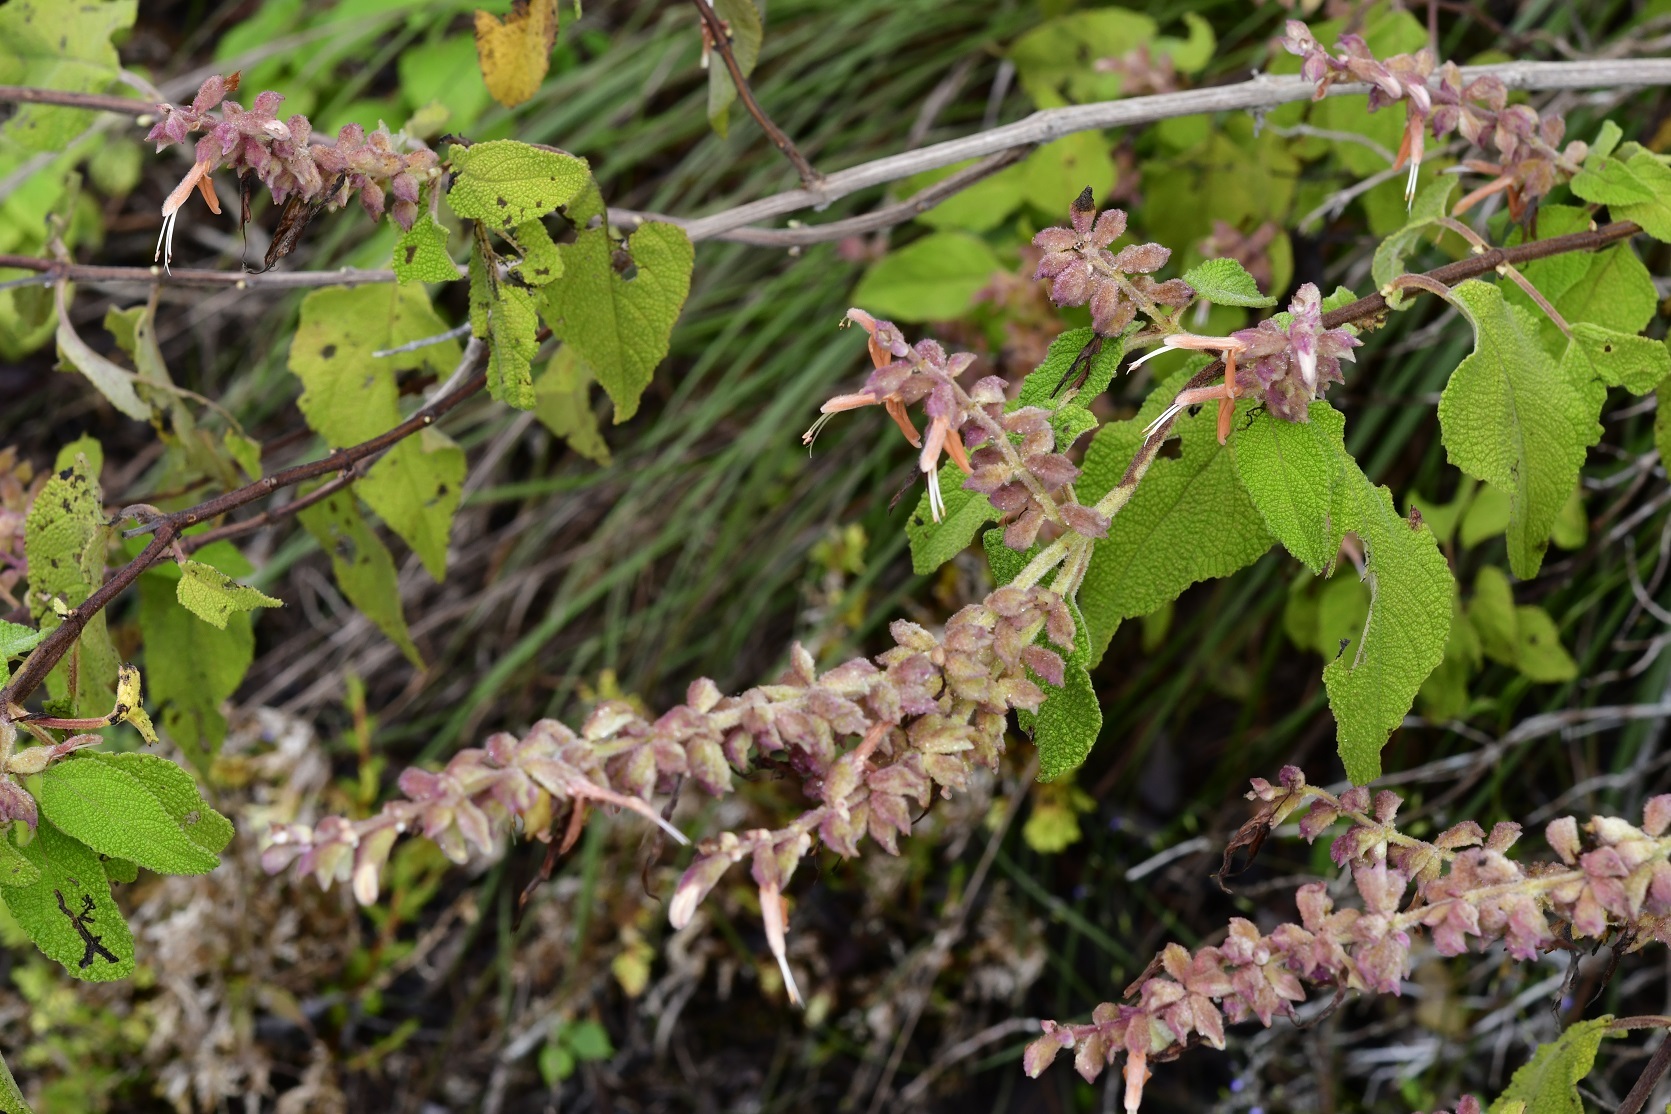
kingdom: Plantae
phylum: Tracheophyta
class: Magnoliopsida
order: Lamiales
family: Lamiaceae
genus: Salvia
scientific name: Salvia lasiantha
